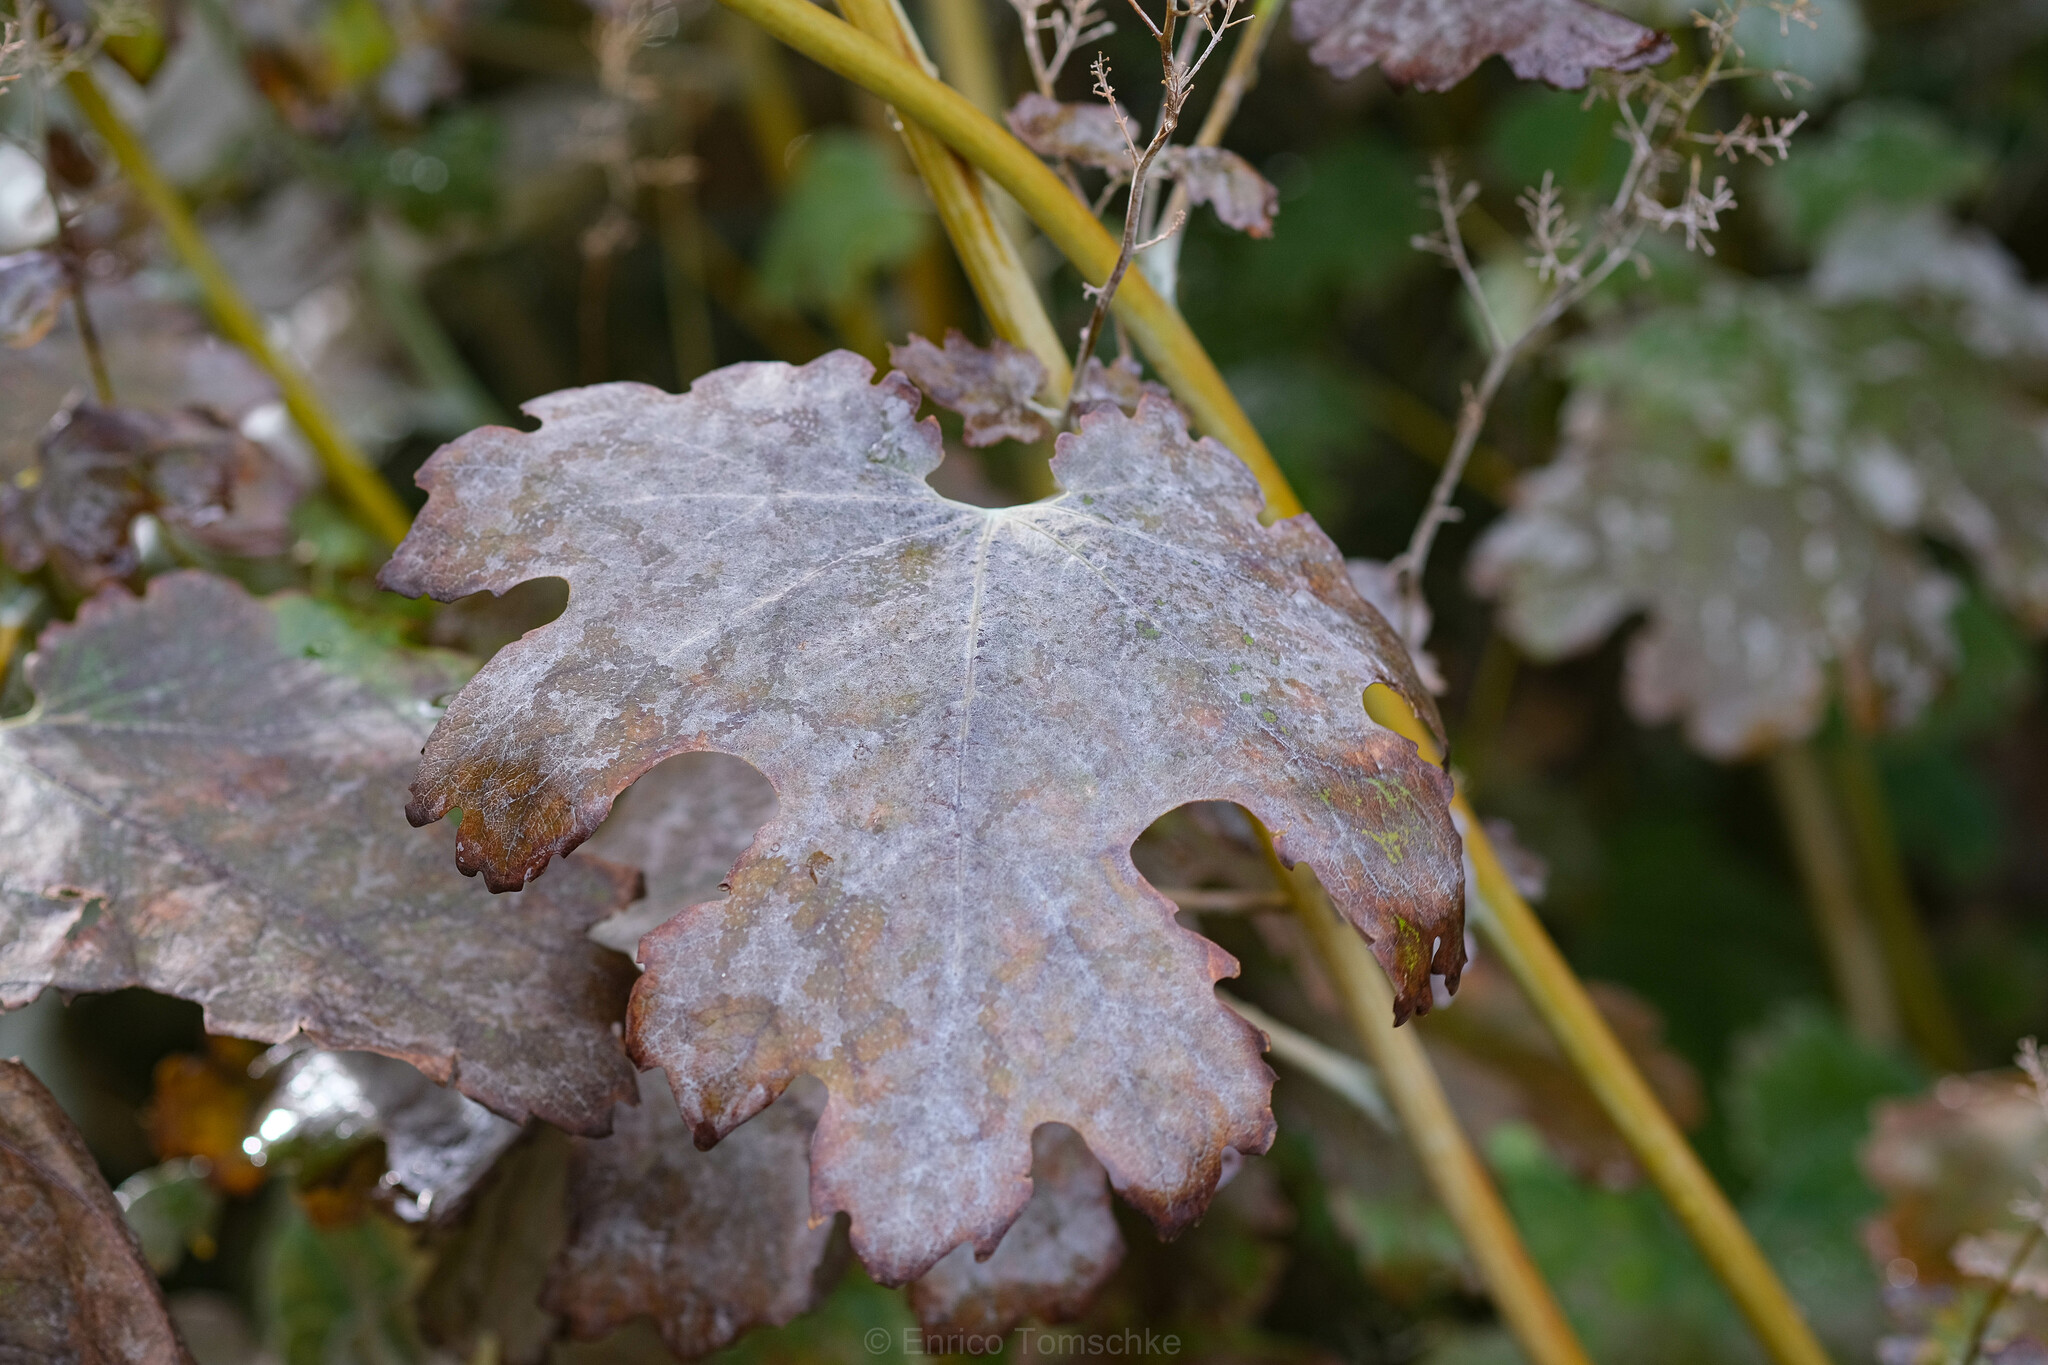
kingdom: Fungi
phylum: Ascomycota
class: Leotiomycetes
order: Helotiales
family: Erysiphaceae
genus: Erysiphe
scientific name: Erysiphe macleayae
